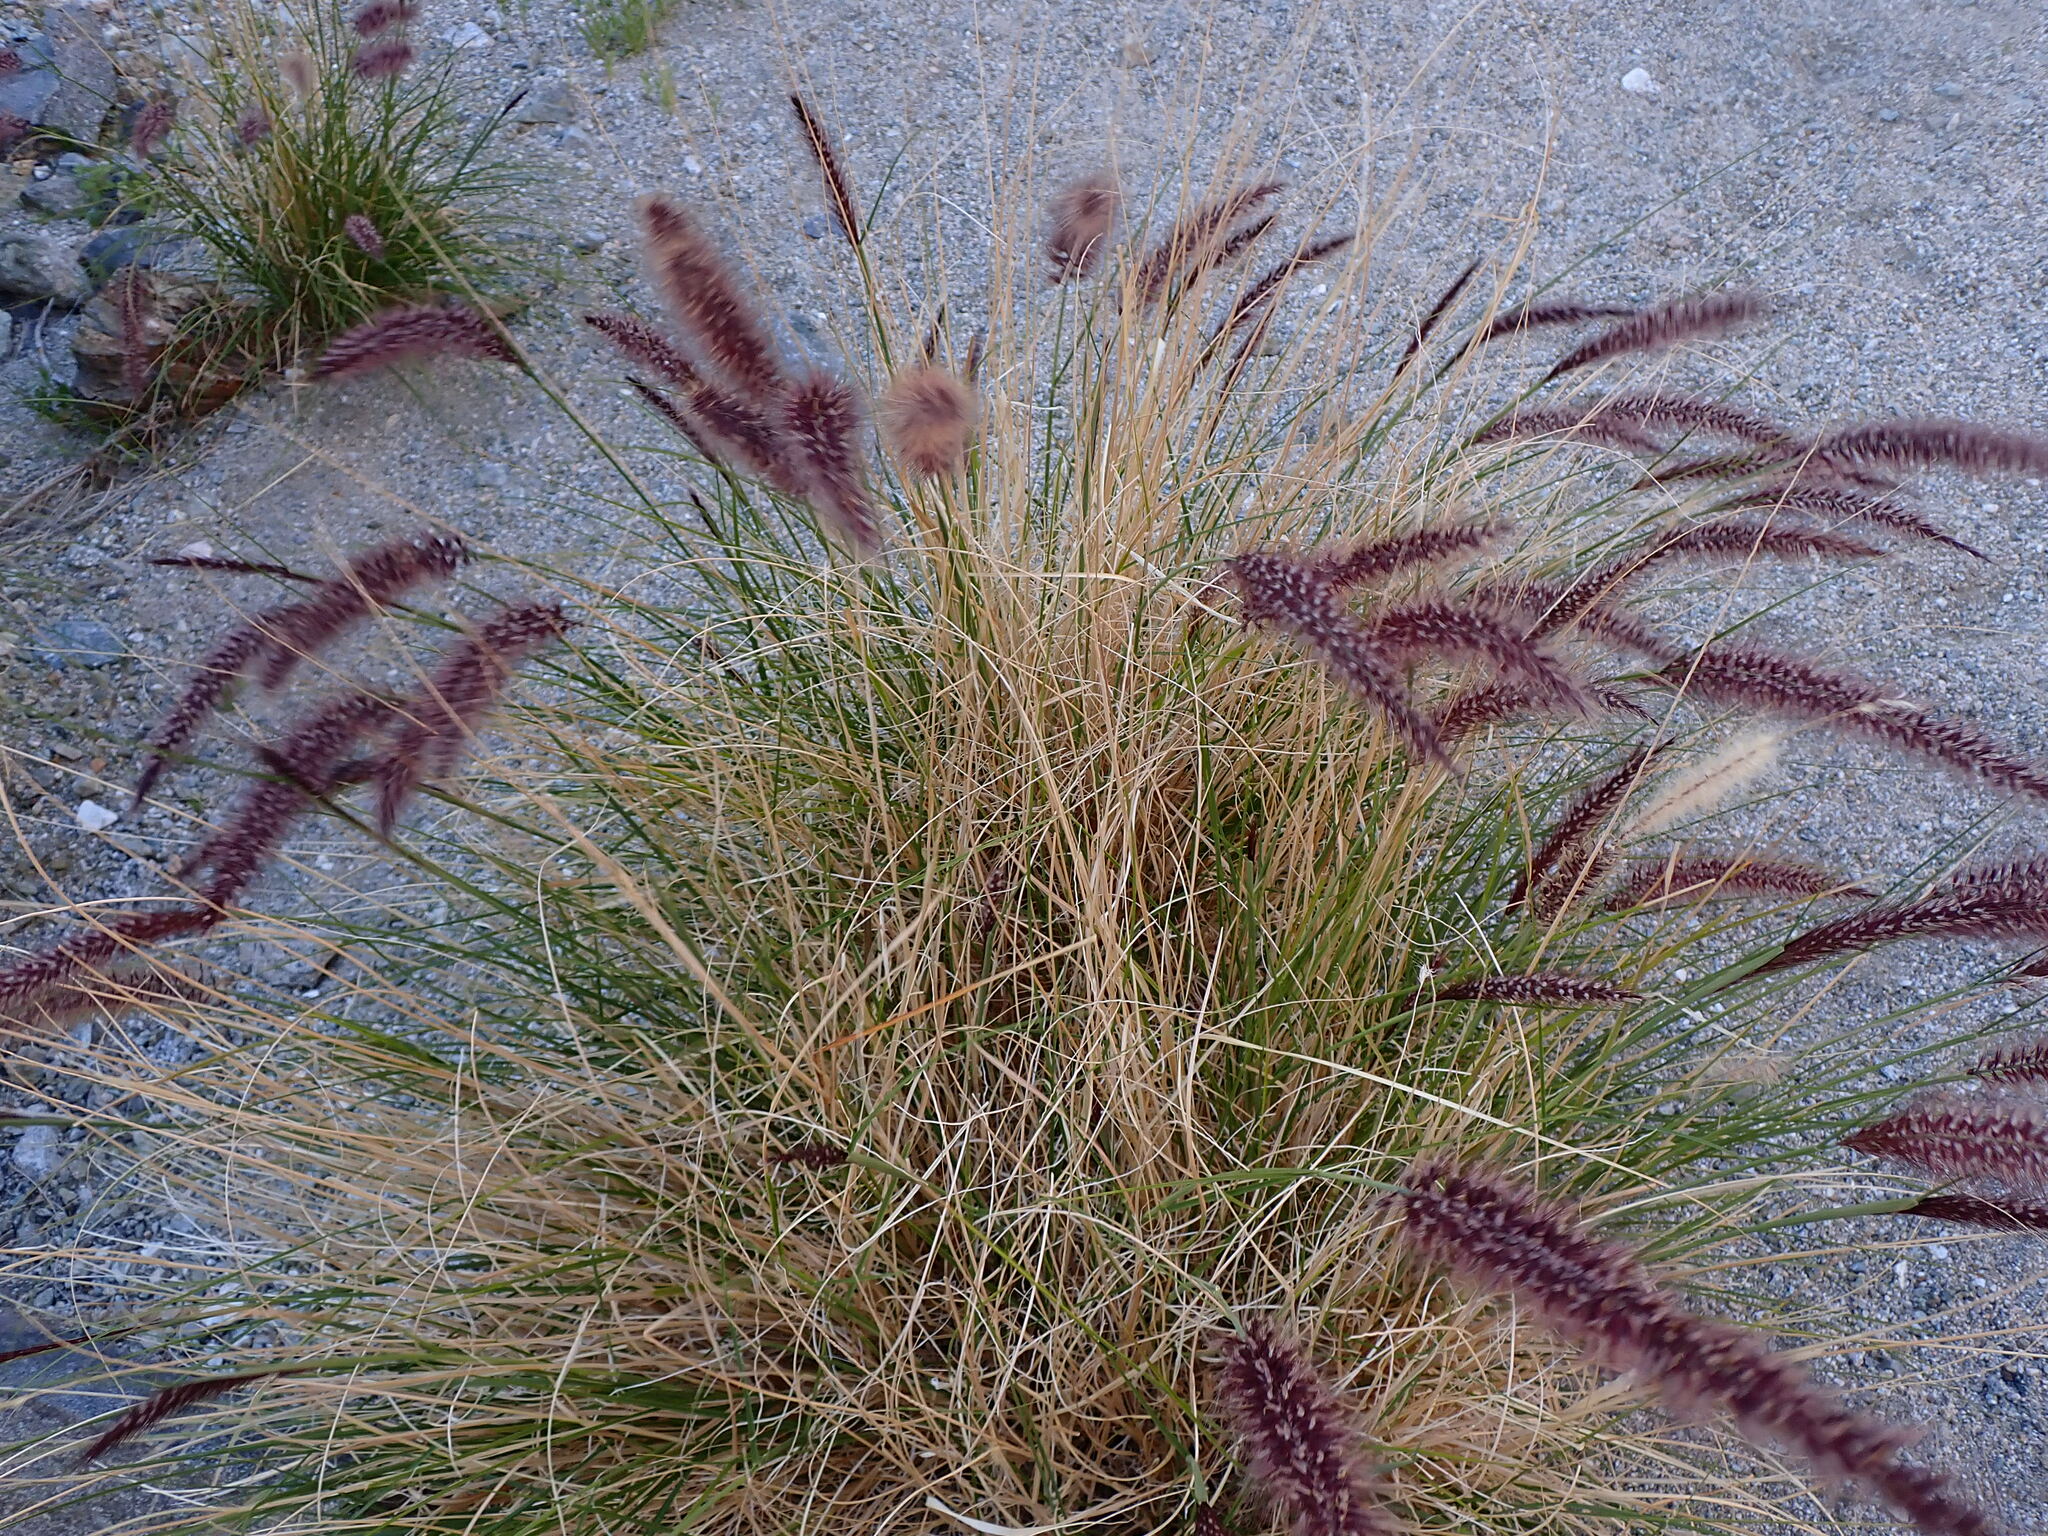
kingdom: Plantae
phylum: Tracheophyta
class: Liliopsida
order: Poales
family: Poaceae
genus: Cenchrus
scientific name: Cenchrus setaceus
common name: Crimson fountaingrass
